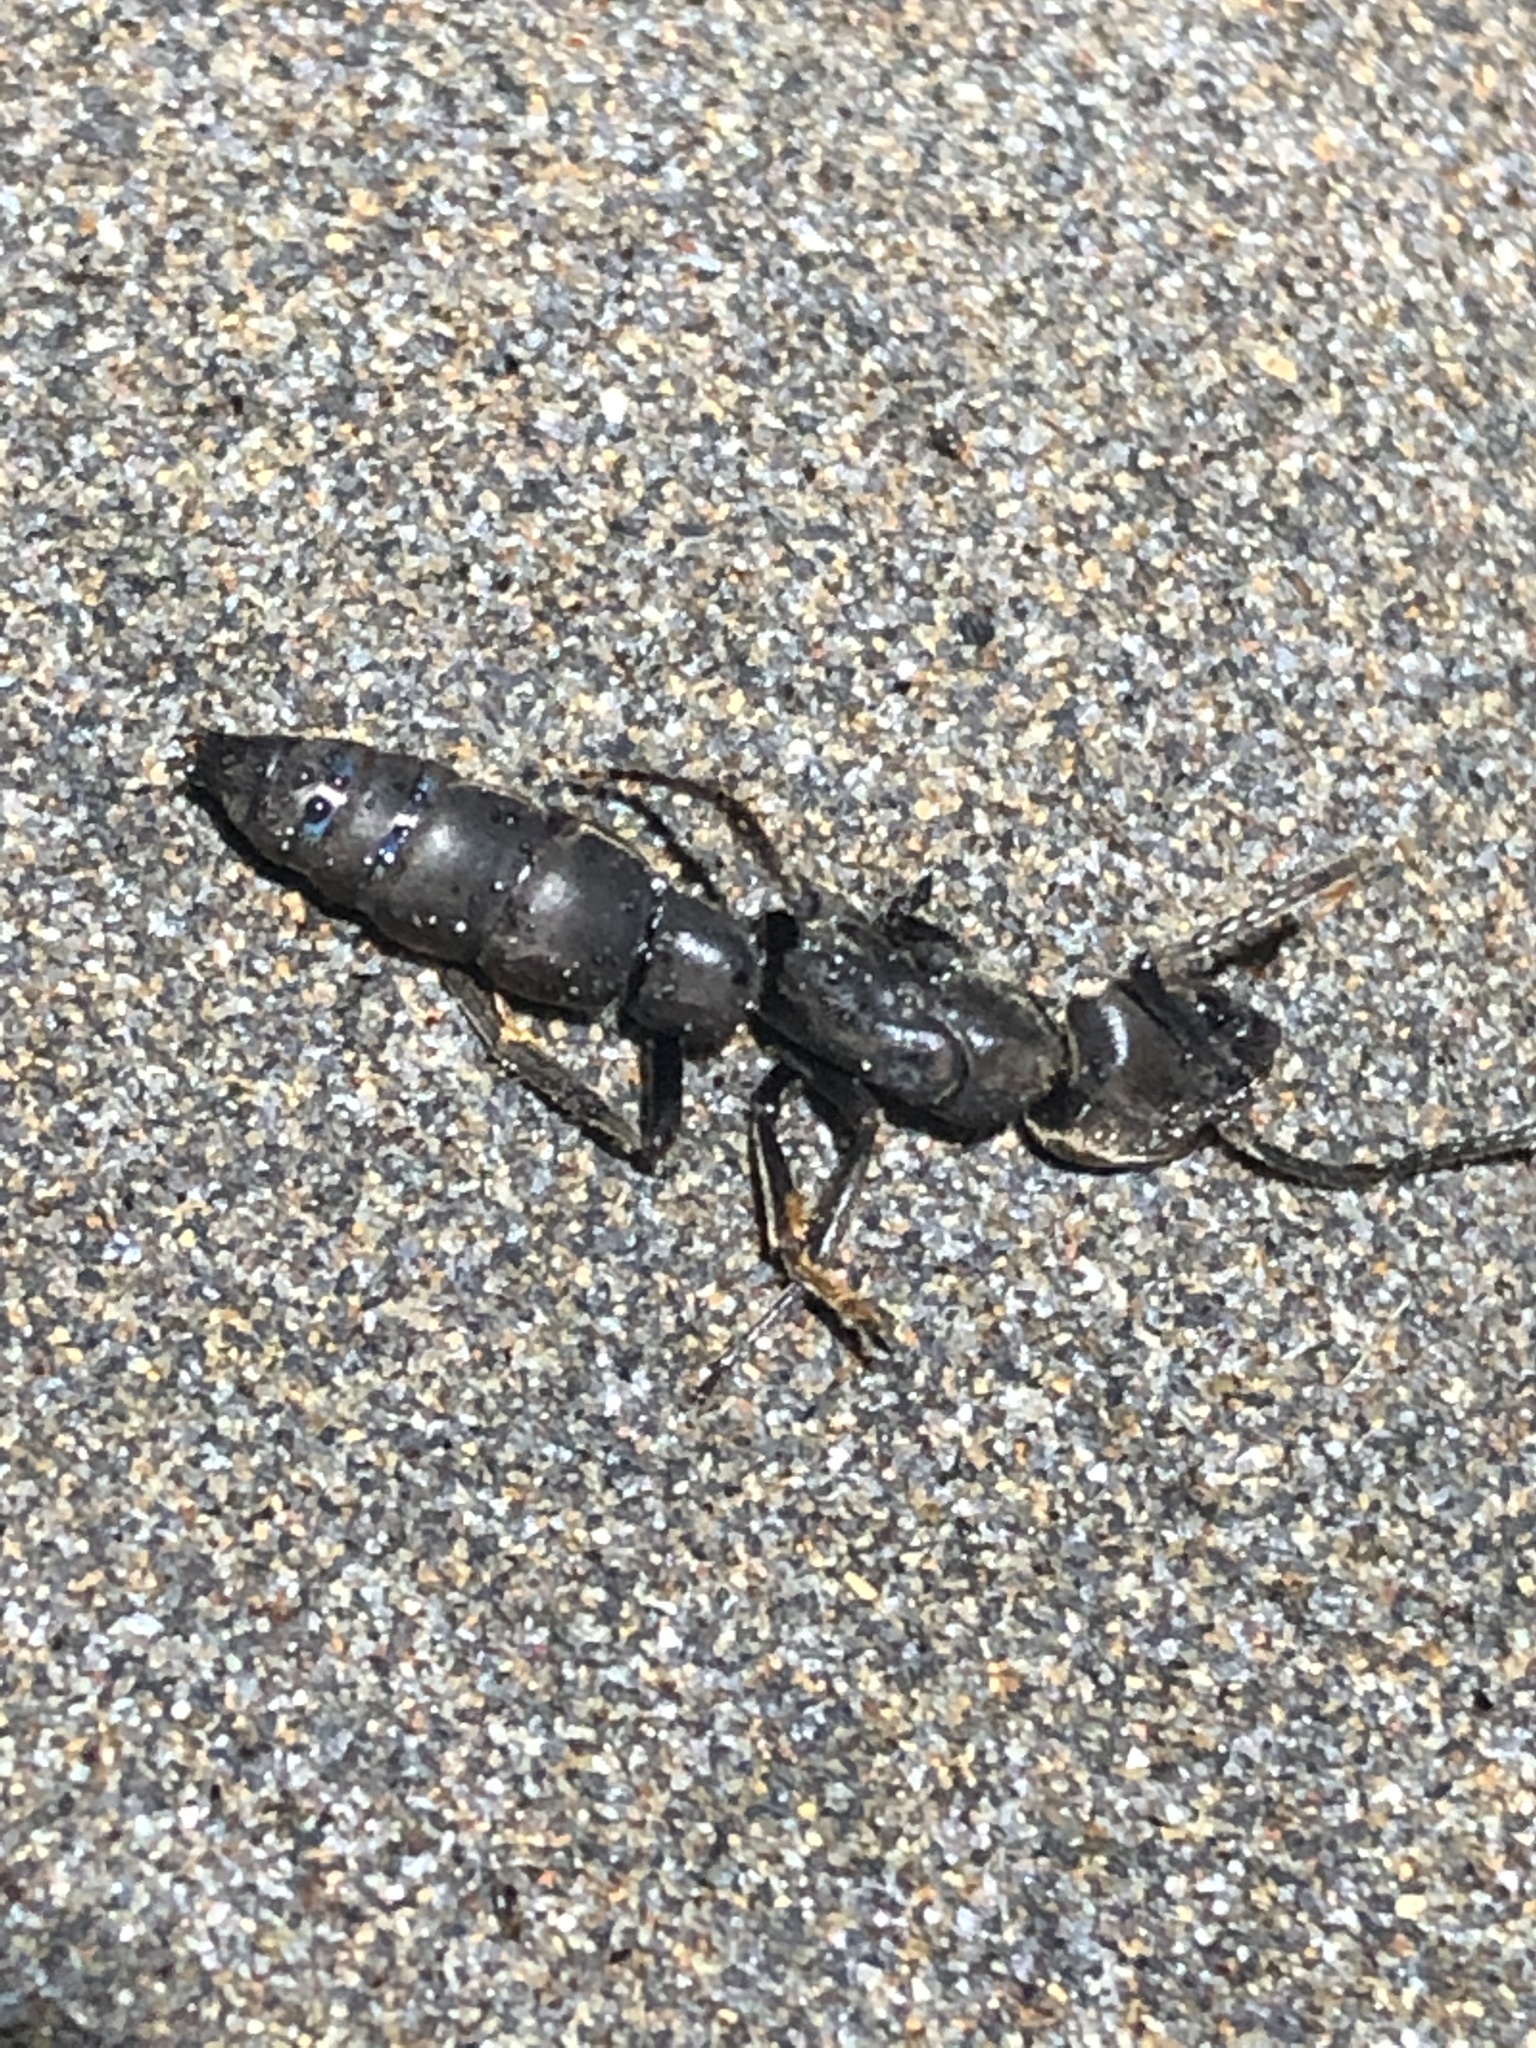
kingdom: Animalia
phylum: Arthropoda
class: Insecta
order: Hymenoptera
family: Formicidae
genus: Pachycondyla
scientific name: Pachycondyla crassinoda
